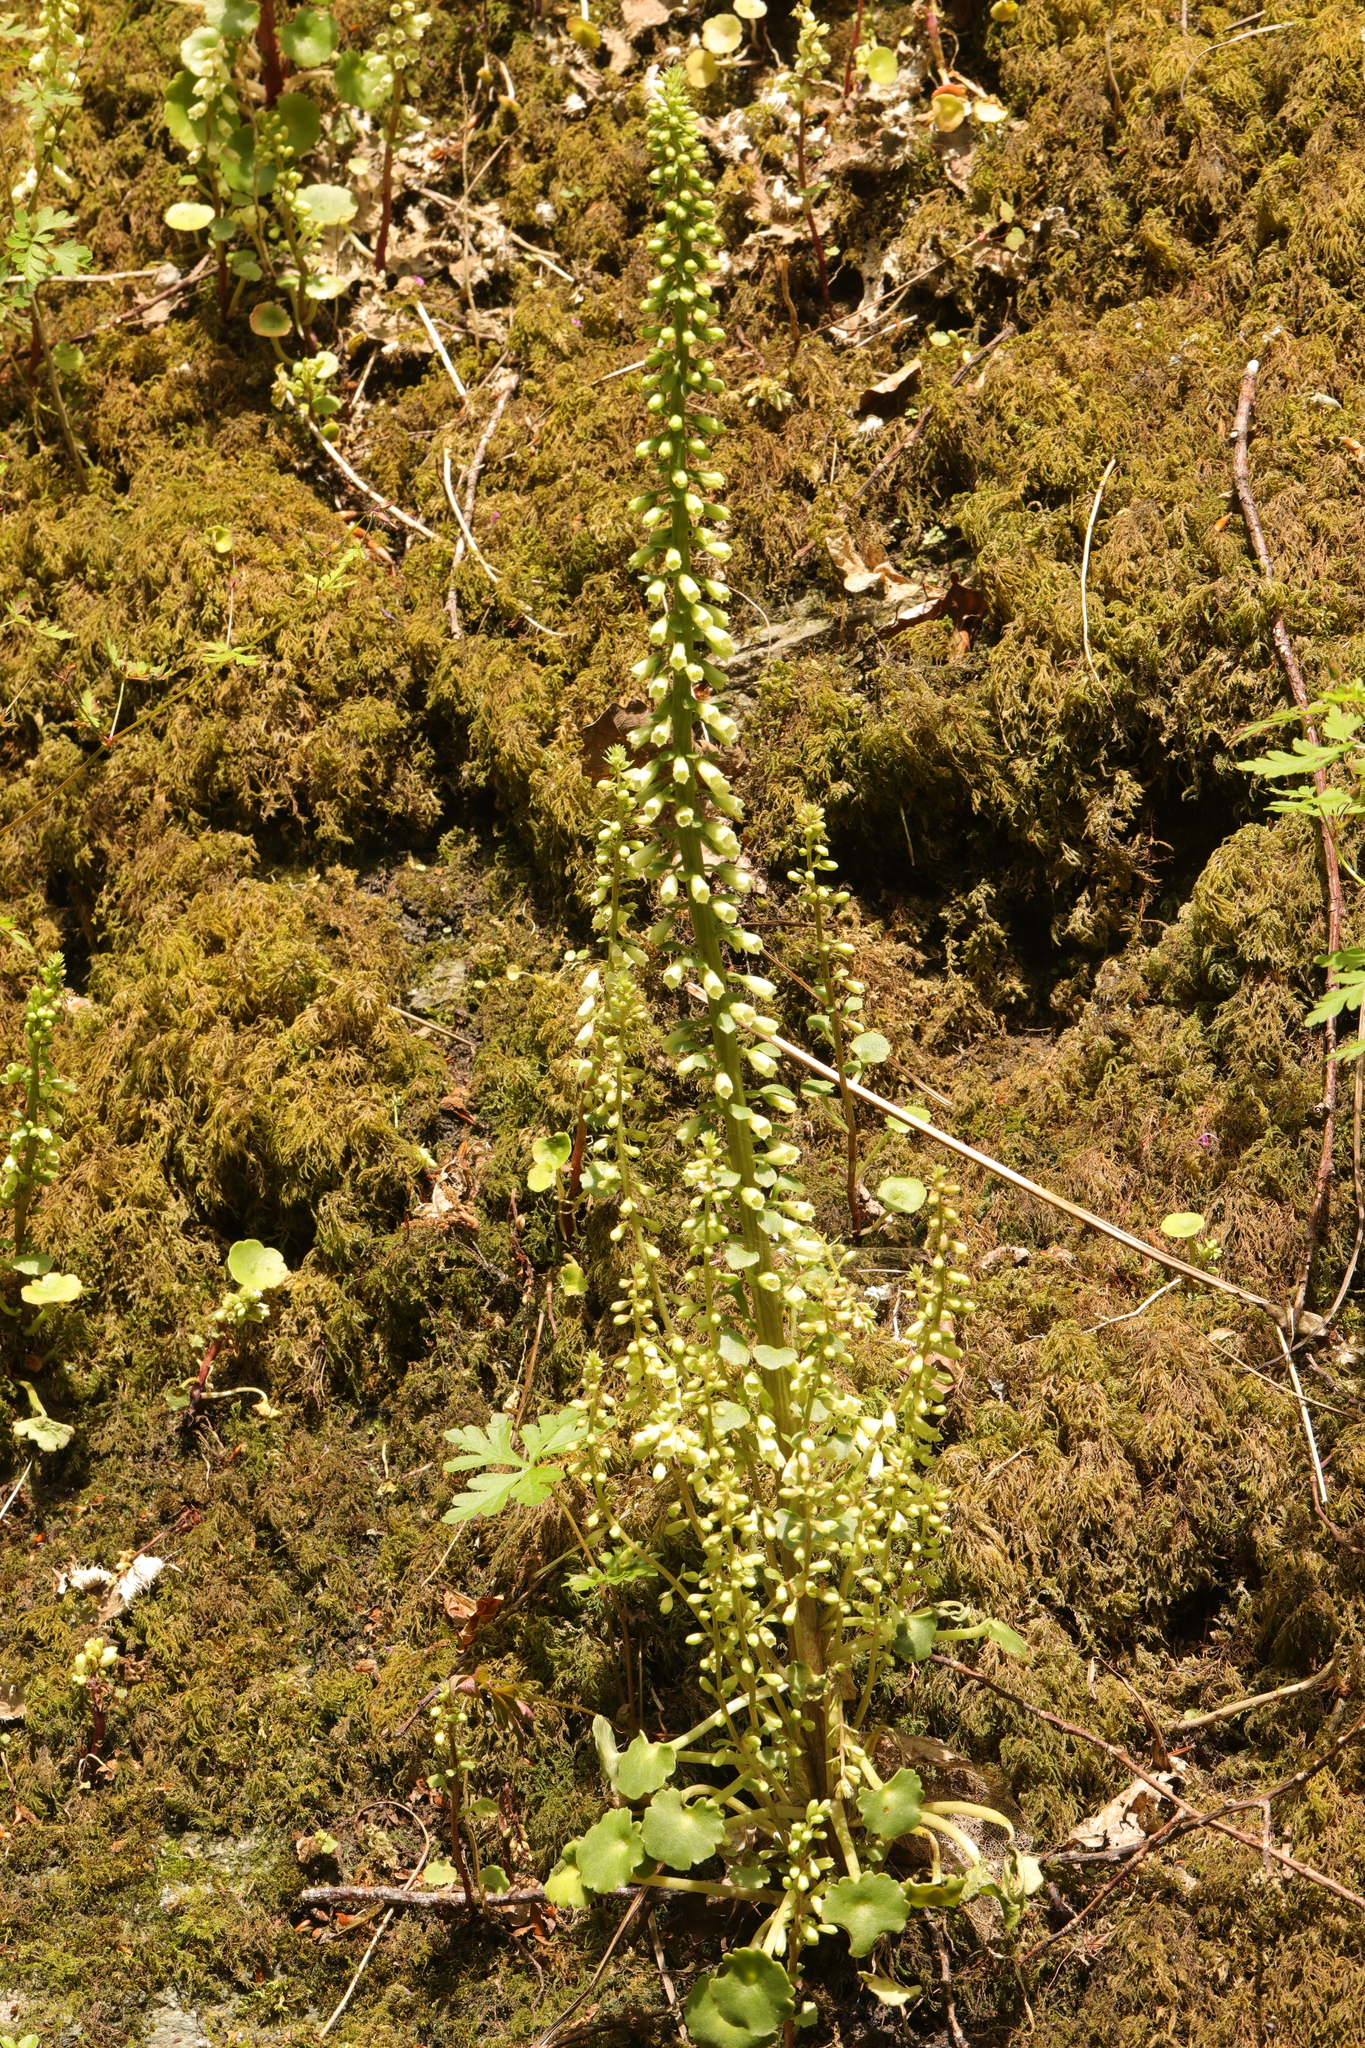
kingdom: Plantae
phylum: Tracheophyta
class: Magnoliopsida
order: Saxifragales
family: Crassulaceae
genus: Umbilicus
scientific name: Umbilicus rupestris
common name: Navelwort
